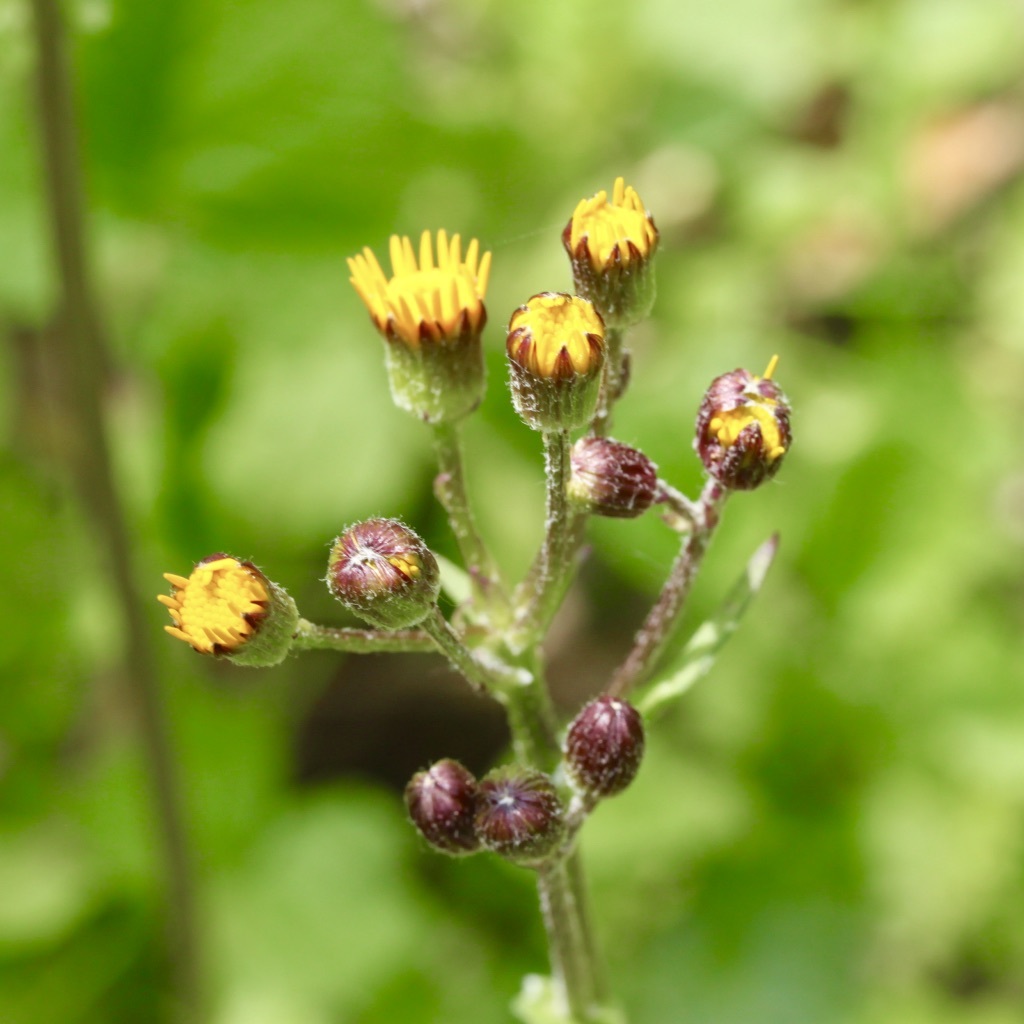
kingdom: Plantae
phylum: Tracheophyta
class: Magnoliopsida
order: Asterales
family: Asteraceae
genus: Packera
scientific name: Packera aurea
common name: Golden groundsel
